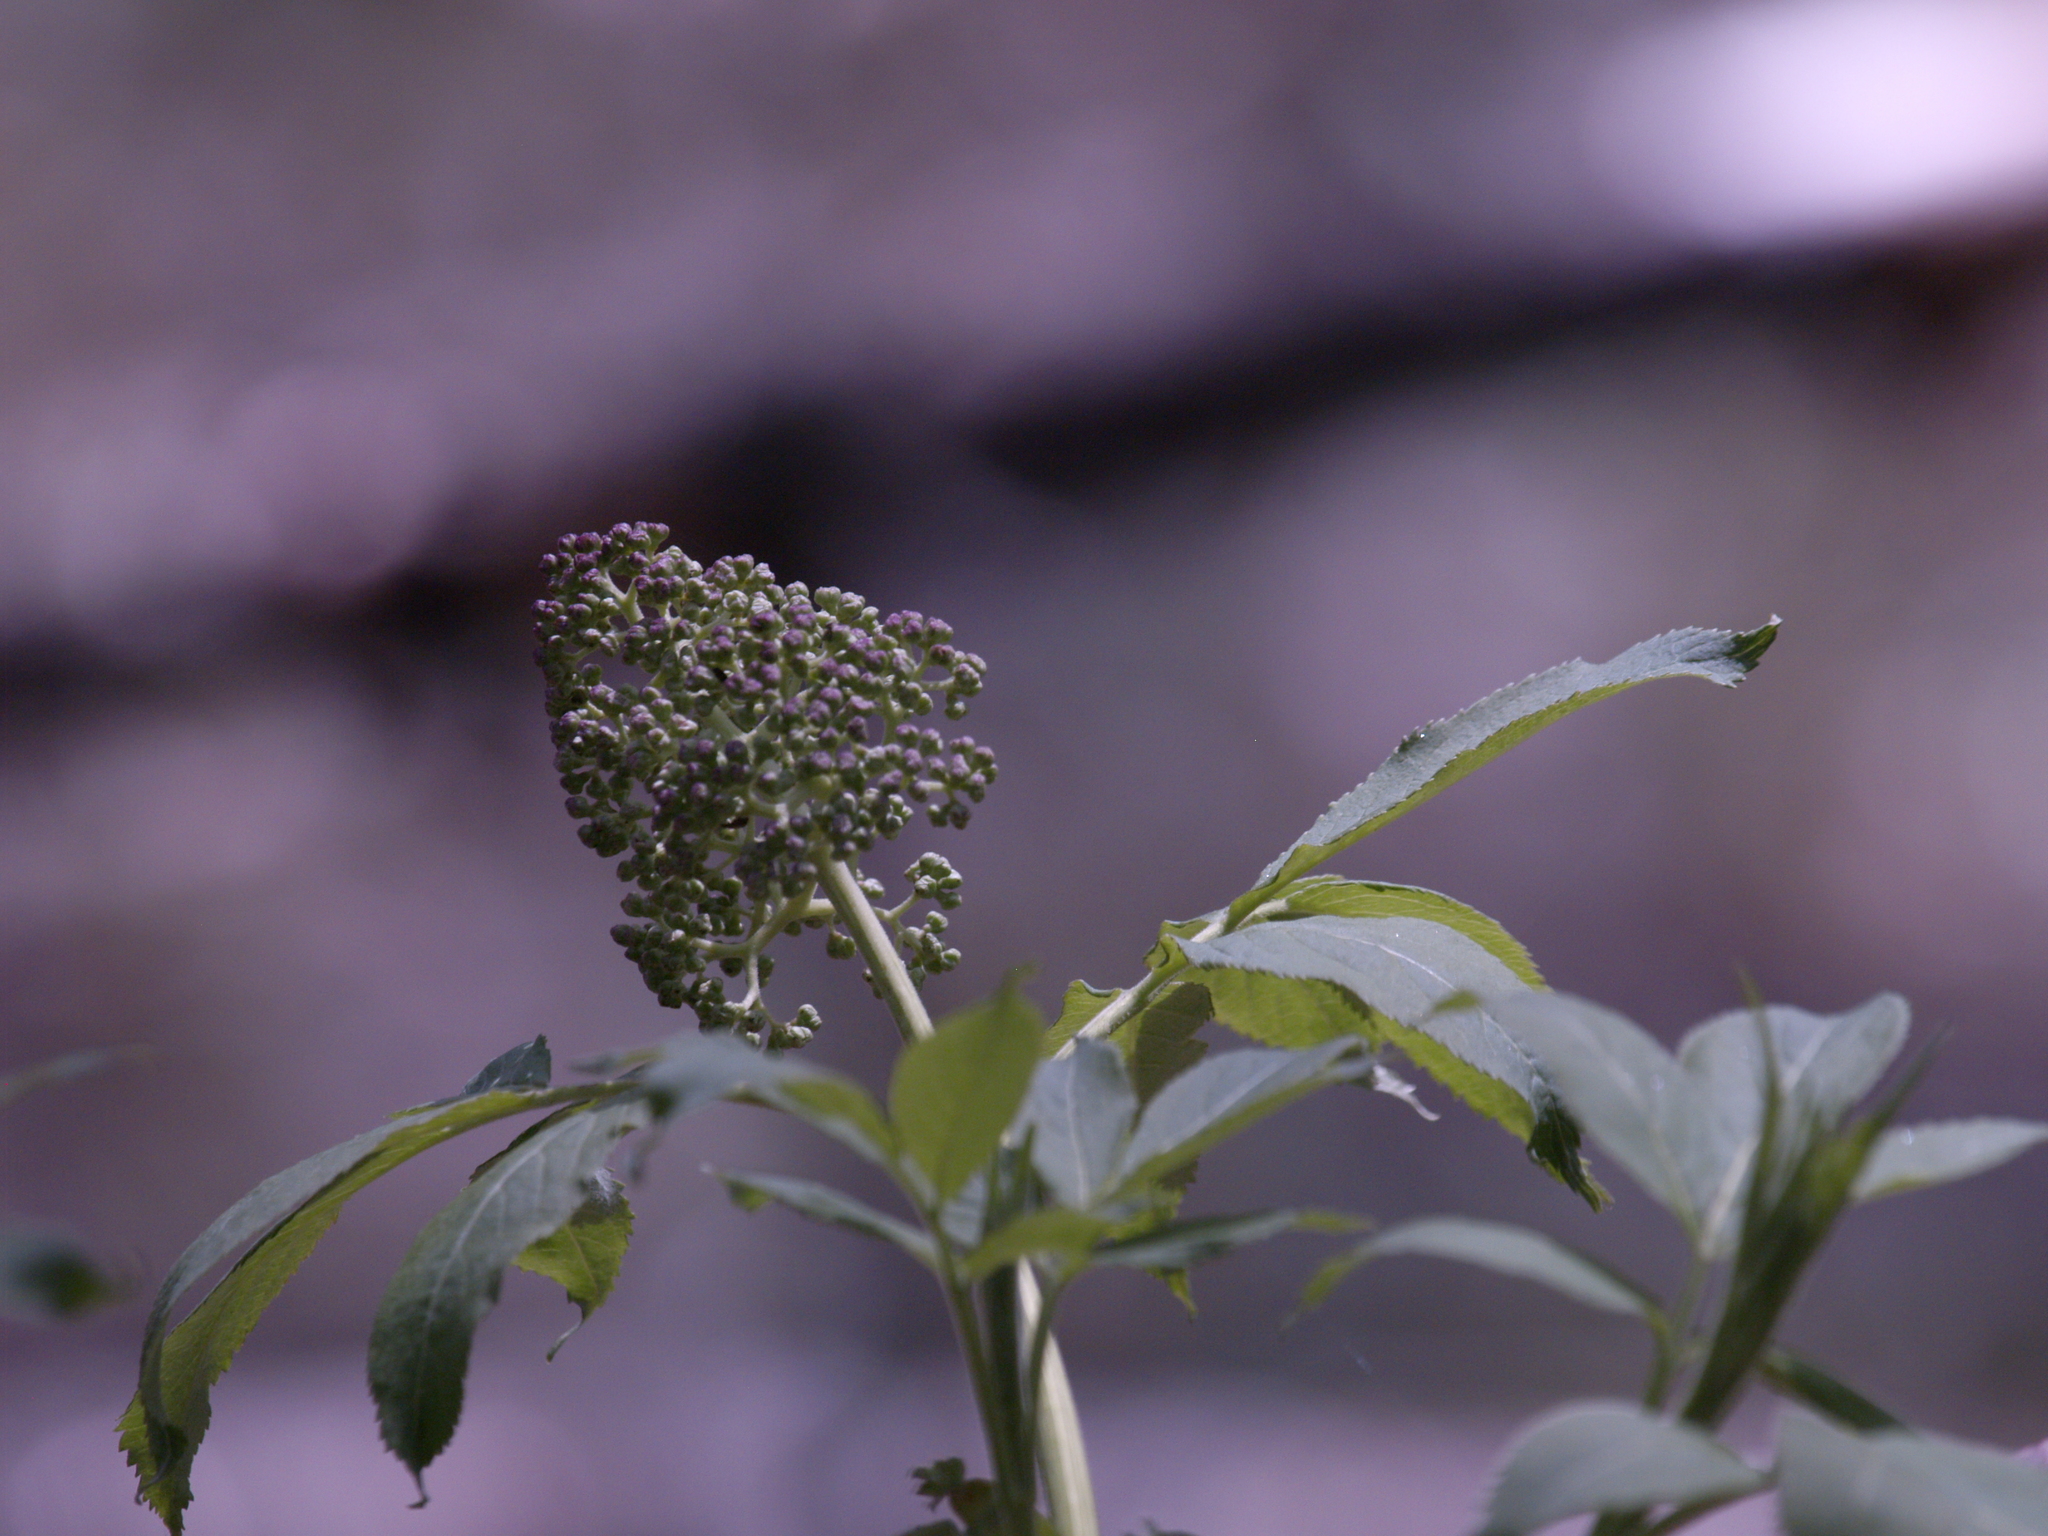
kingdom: Plantae
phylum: Tracheophyta
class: Magnoliopsida
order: Dipsacales
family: Viburnaceae
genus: Sambucus
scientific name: Sambucus racemosa
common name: Red-berried elder
